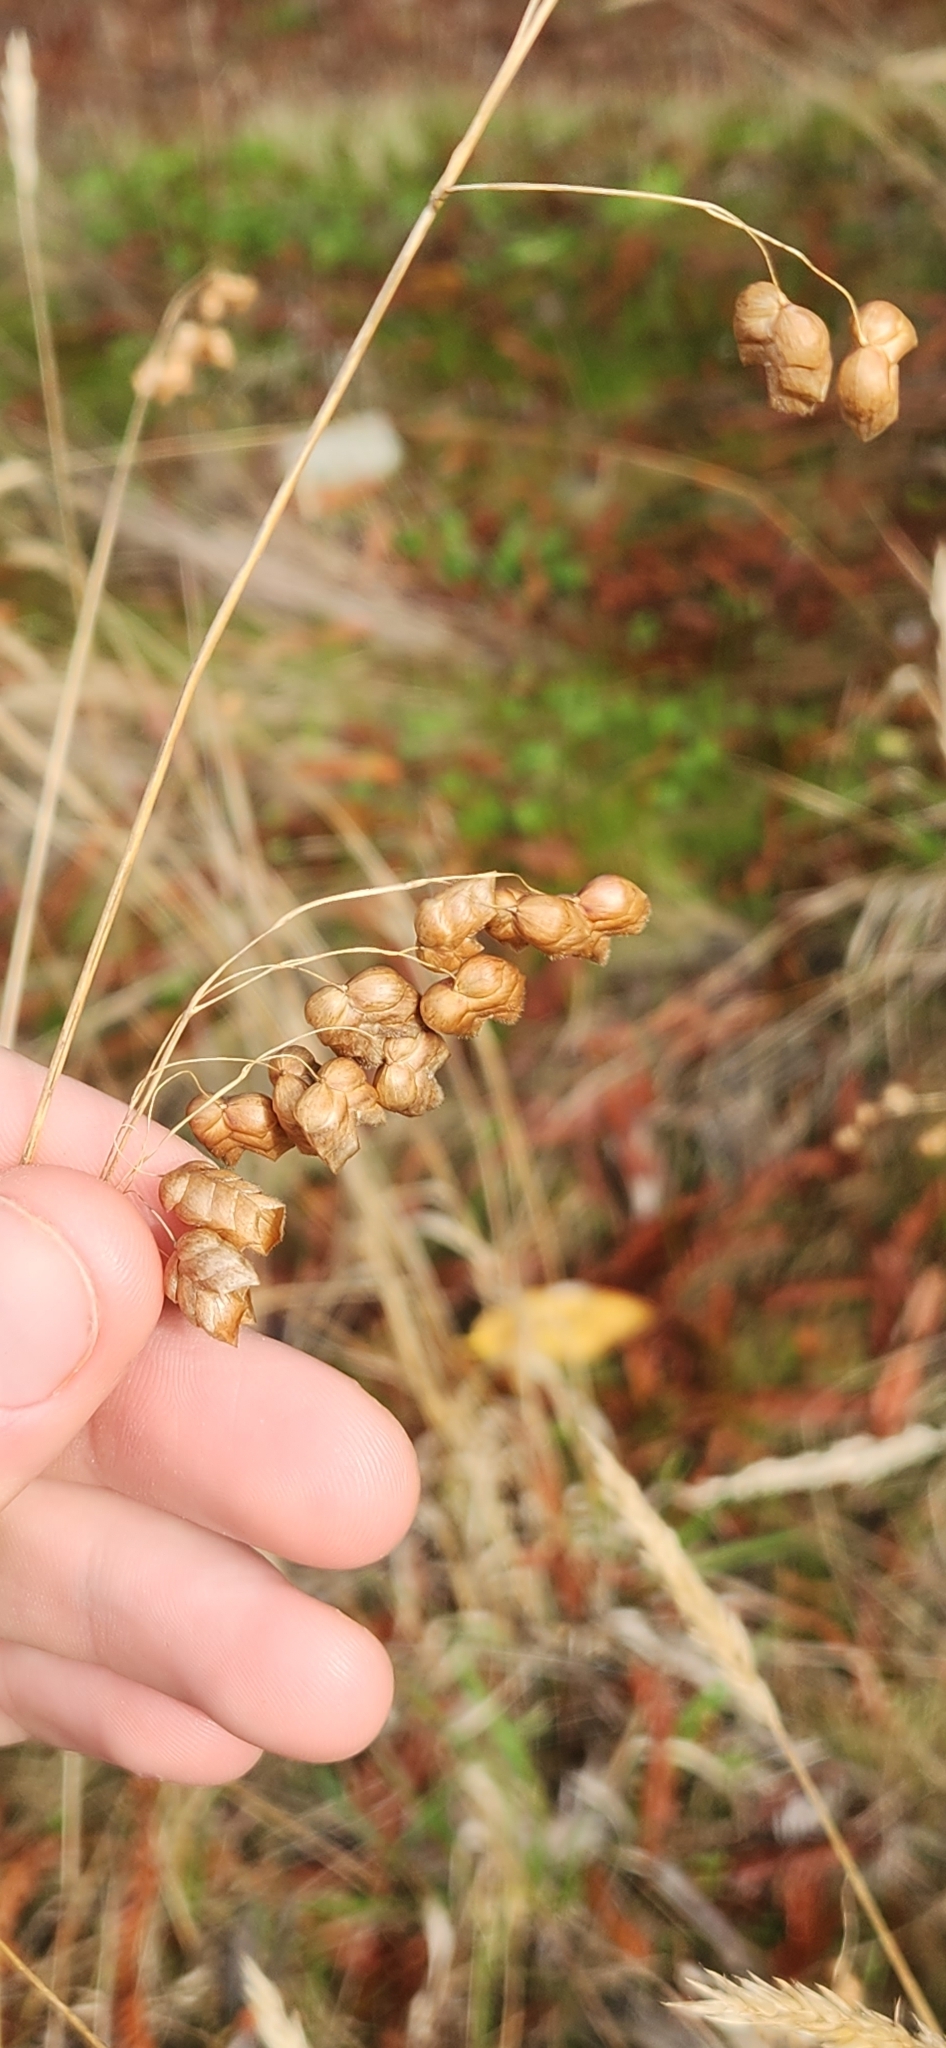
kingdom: Plantae
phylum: Tracheophyta
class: Liliopsida
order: Poales
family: Poaceae
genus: Briza
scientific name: Briza maxima
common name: Big quakinggrass
